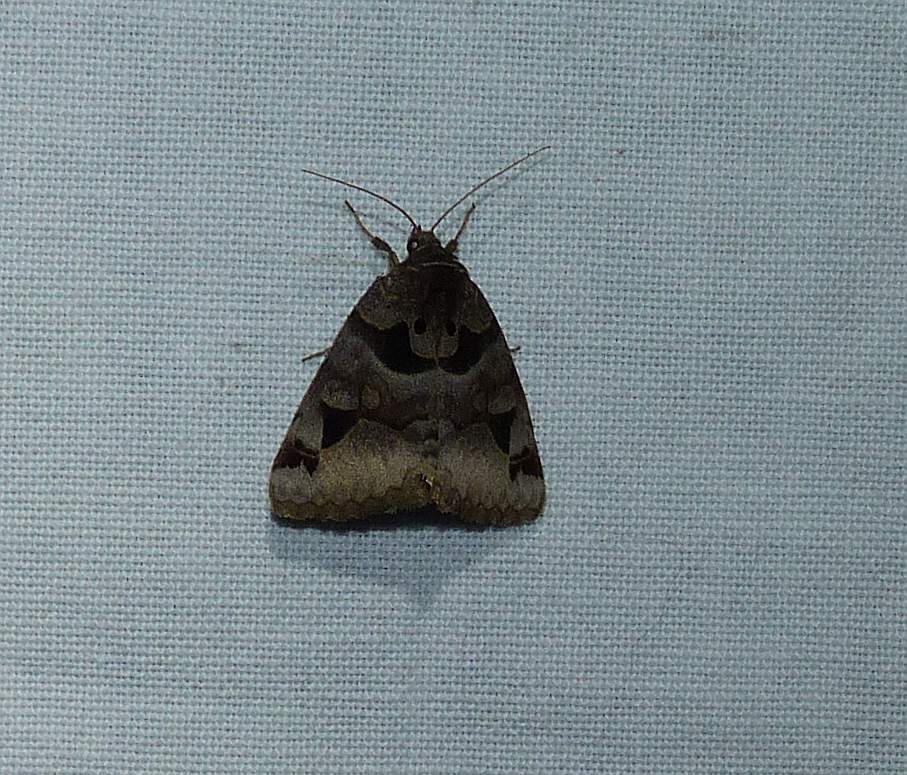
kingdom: Animalia
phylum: Arthropoda
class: Insecta
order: Lepidoptera
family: Erebidae
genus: Euclidia
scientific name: Euclidia cuspidea
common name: Toothed somberwing
